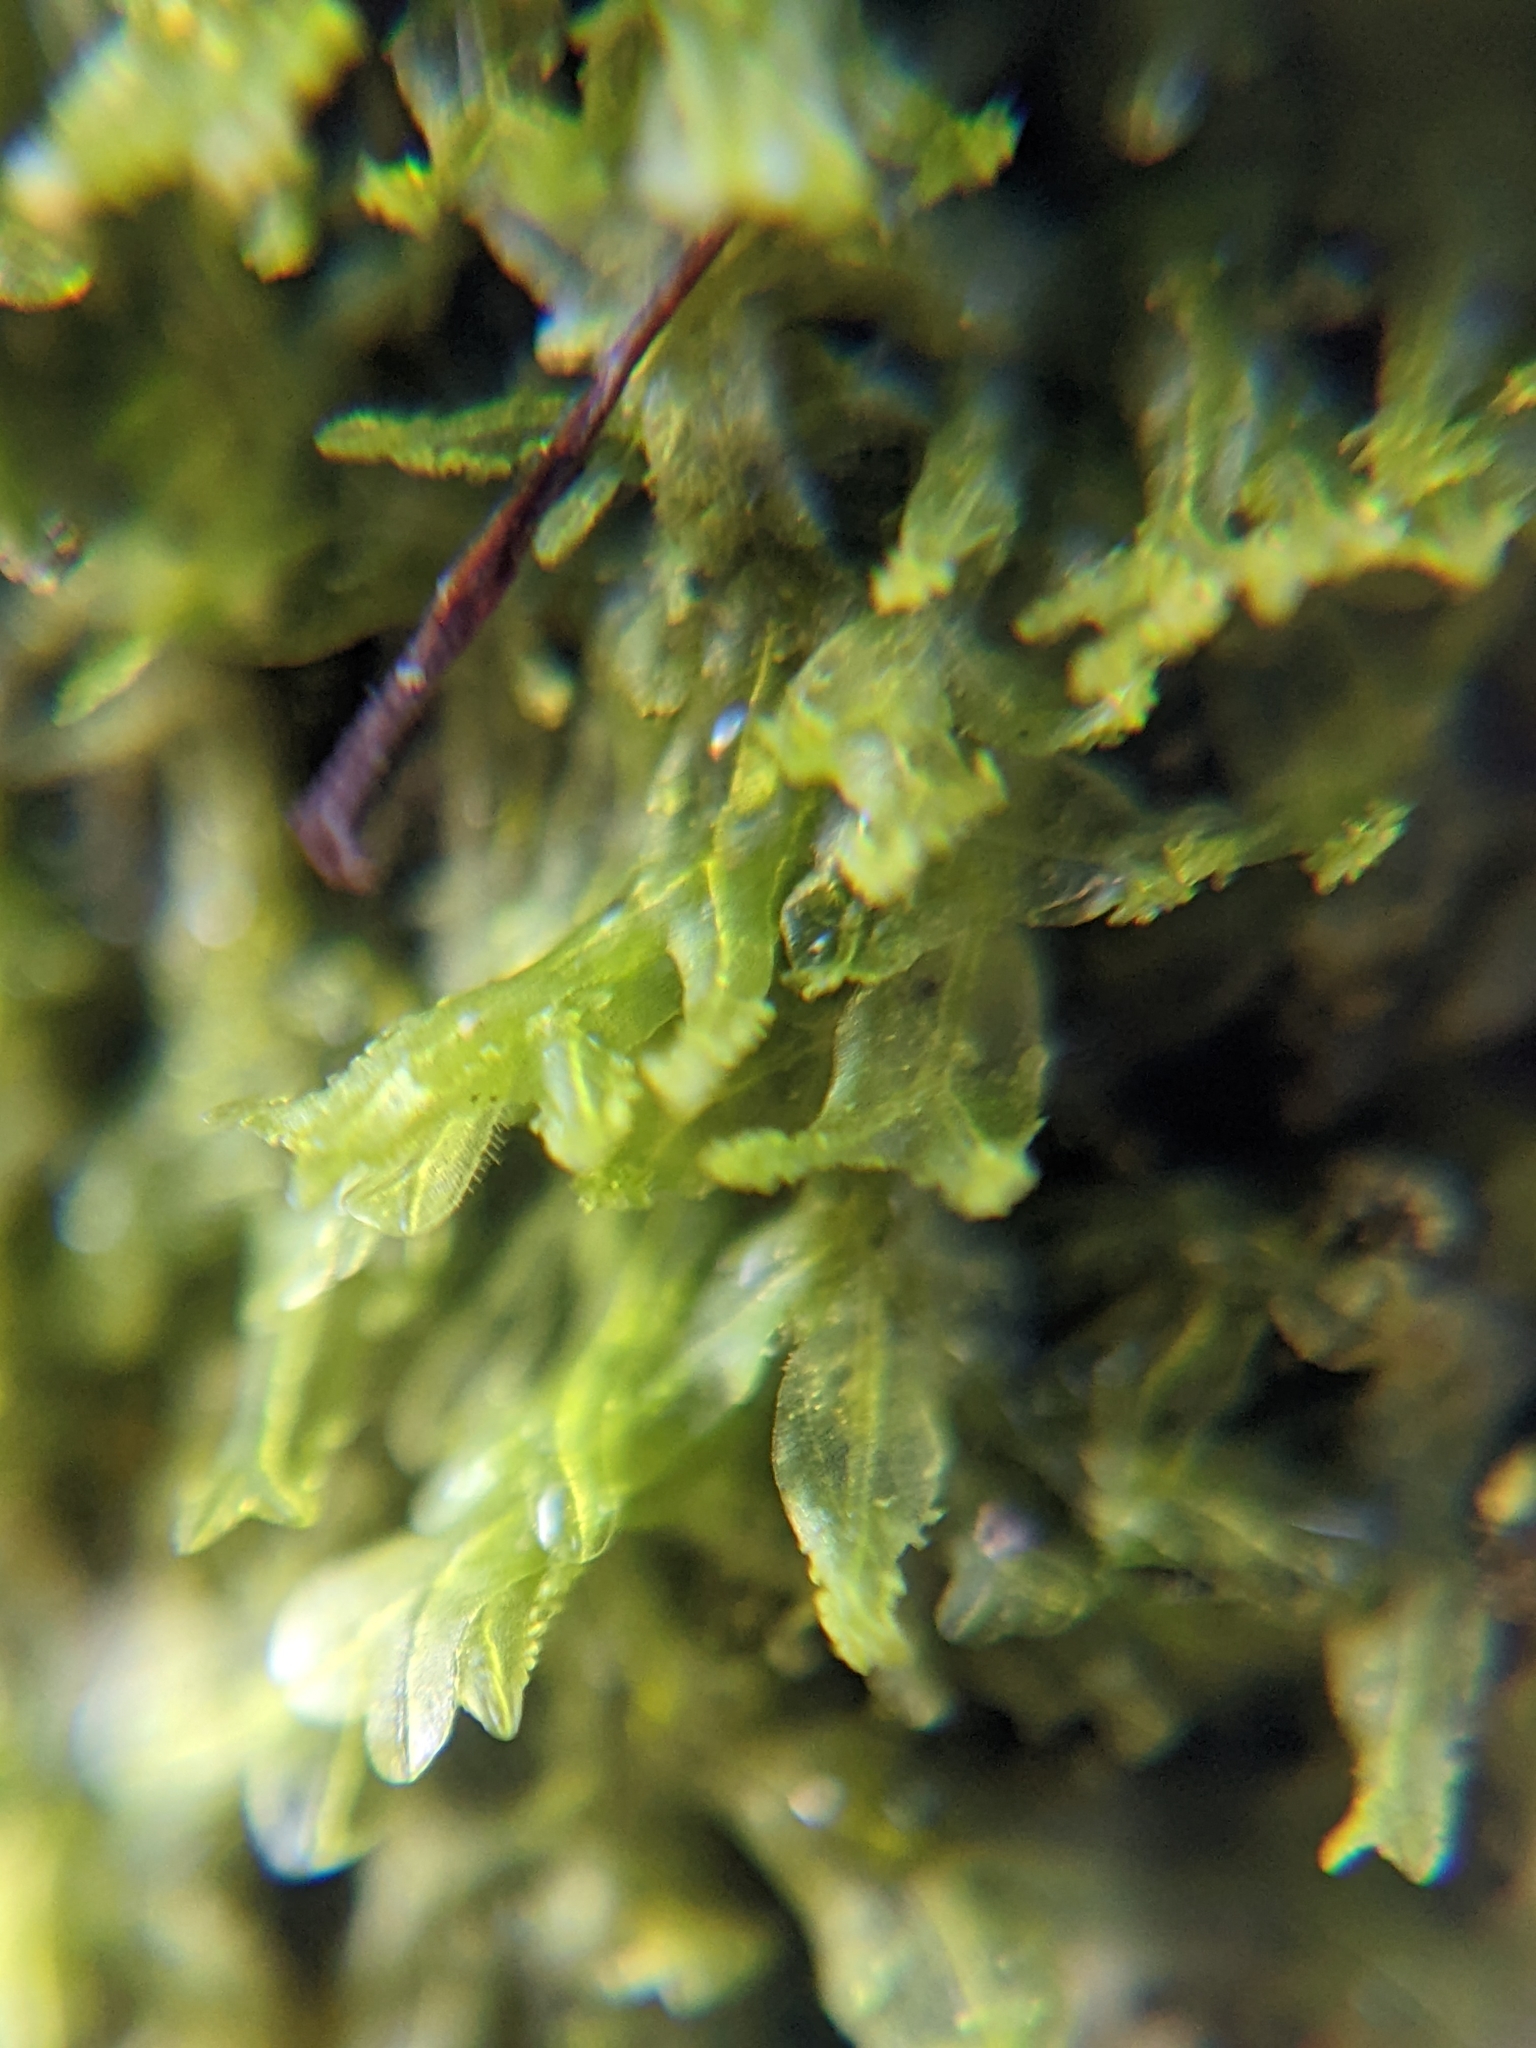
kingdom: Plantae
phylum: Marchantiophyta
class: Jungermanniopsida
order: Metzgeriales
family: Metzgeriaceae
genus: Metzgeria
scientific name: Metzgeria violacea
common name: Blueish veilwort
